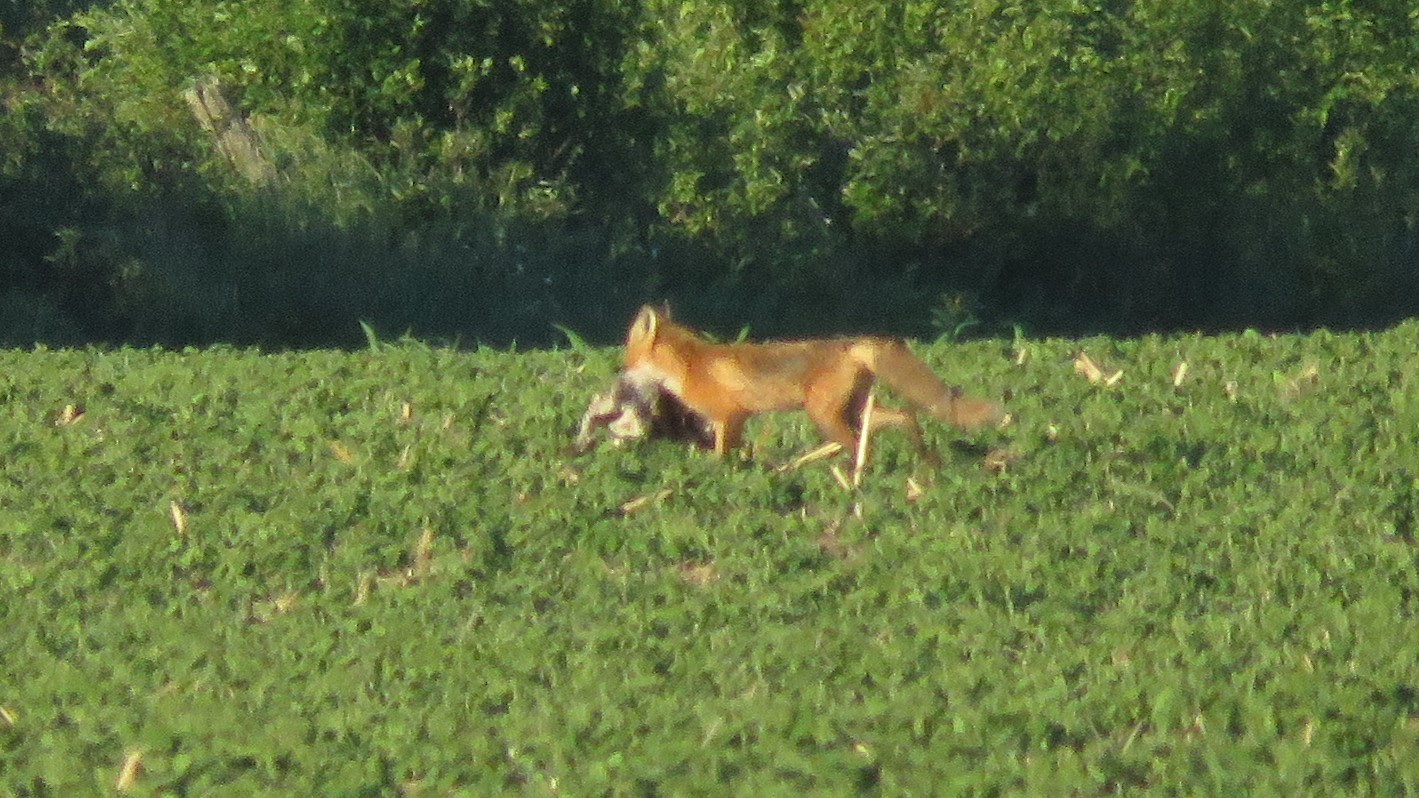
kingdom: Animalia
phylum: Chordata
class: Mammalia
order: Lagomorpha
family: Leporidae
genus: Lepus
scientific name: Lepus europaeus
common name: European hare
